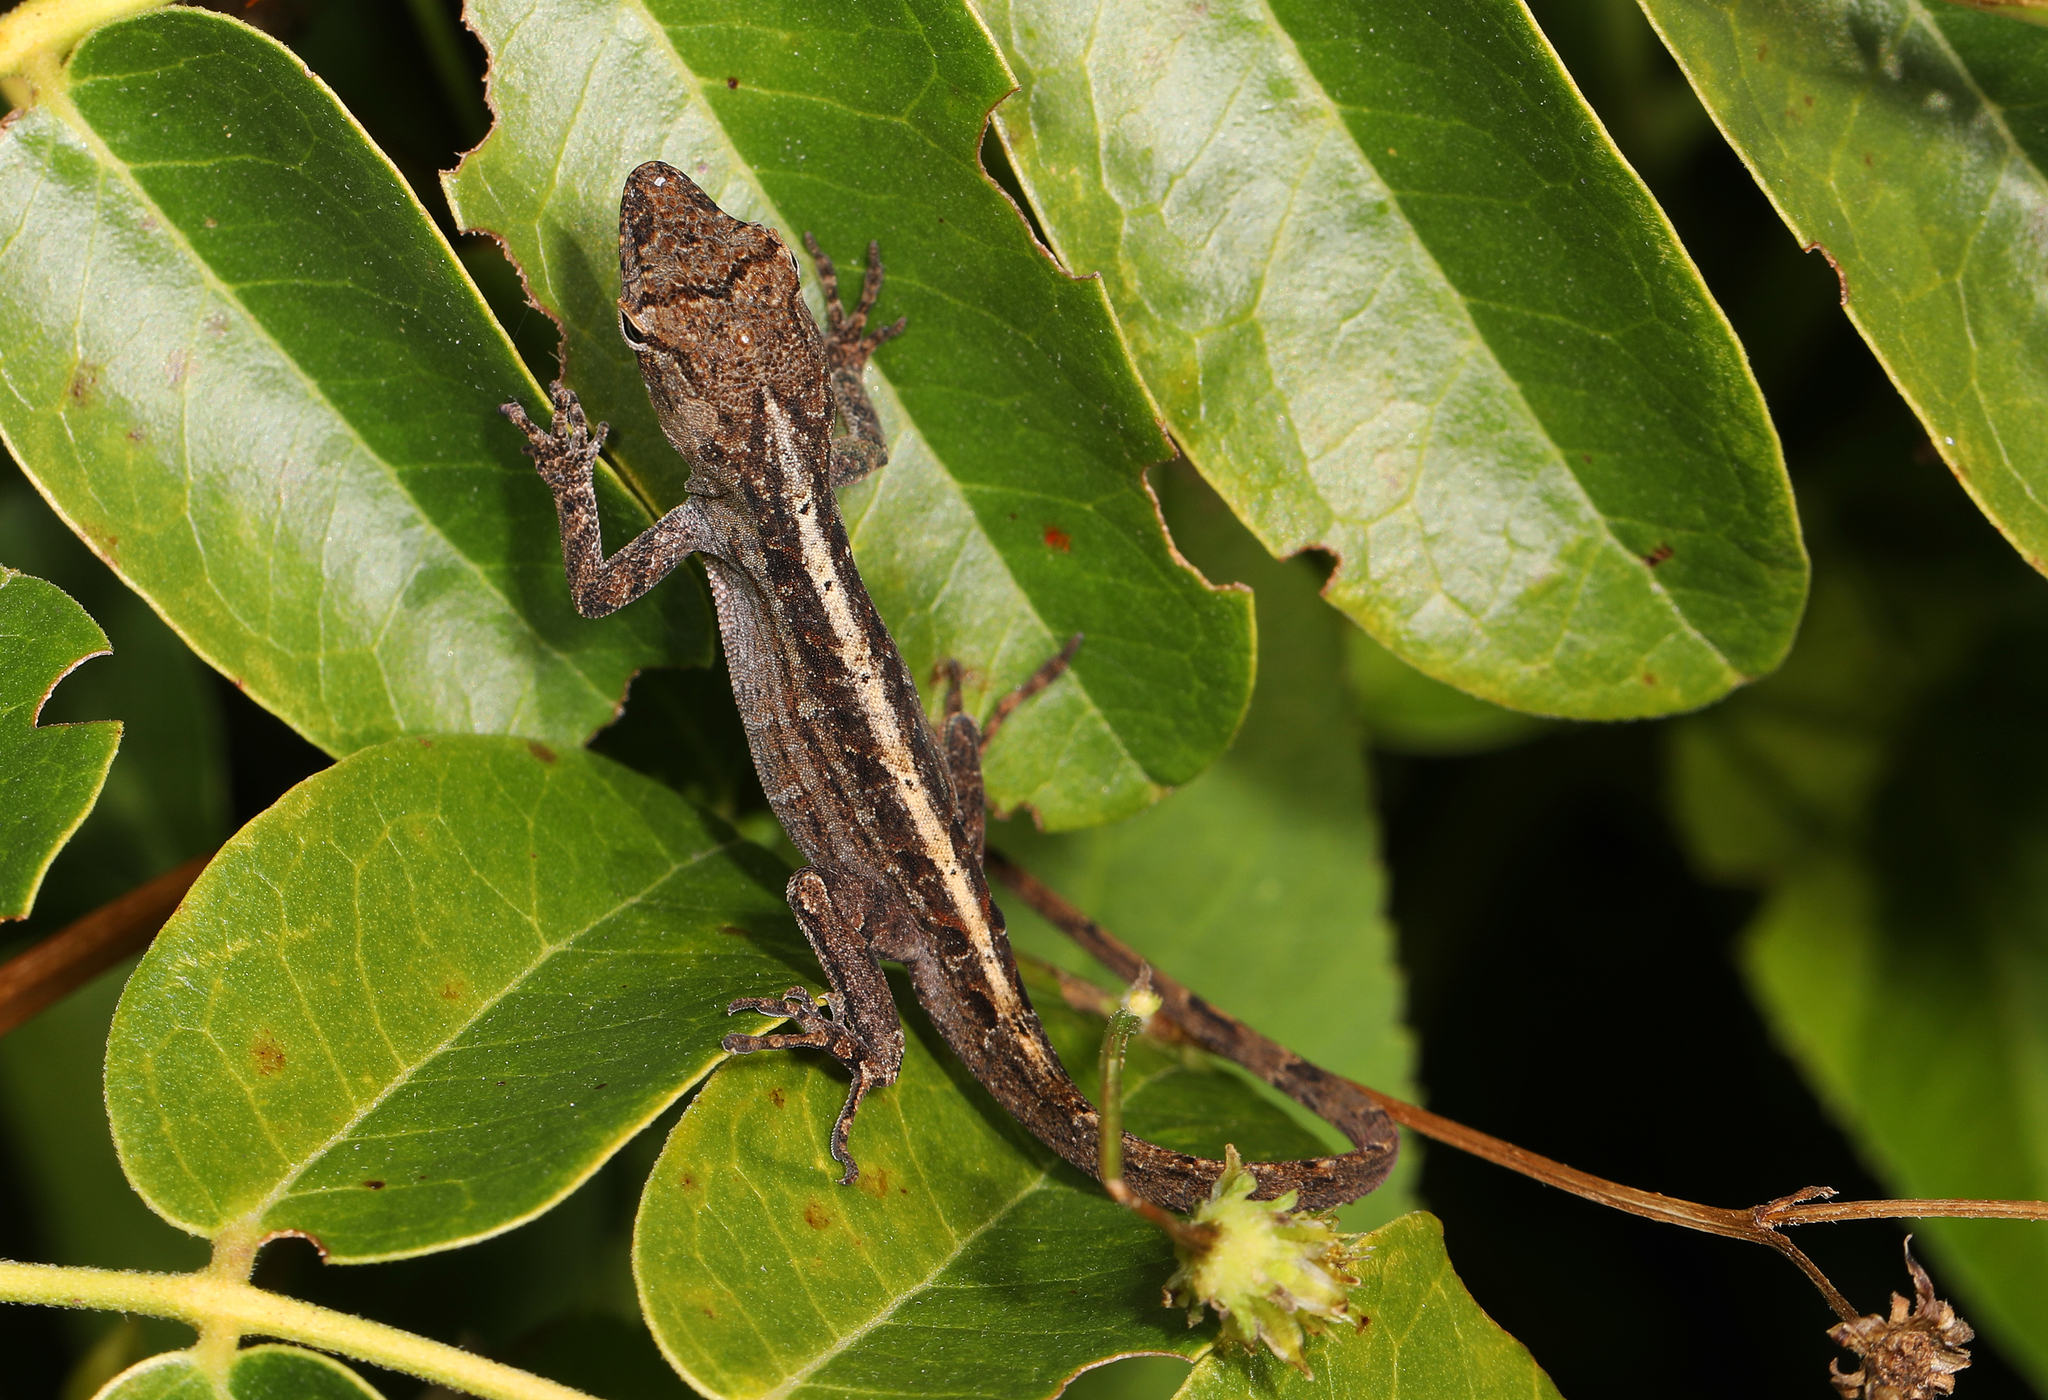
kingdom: Animalia
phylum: Chordata
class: Squamata
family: Dactyloidae
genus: Anolis
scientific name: Anolis sagrei
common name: Brown anole
